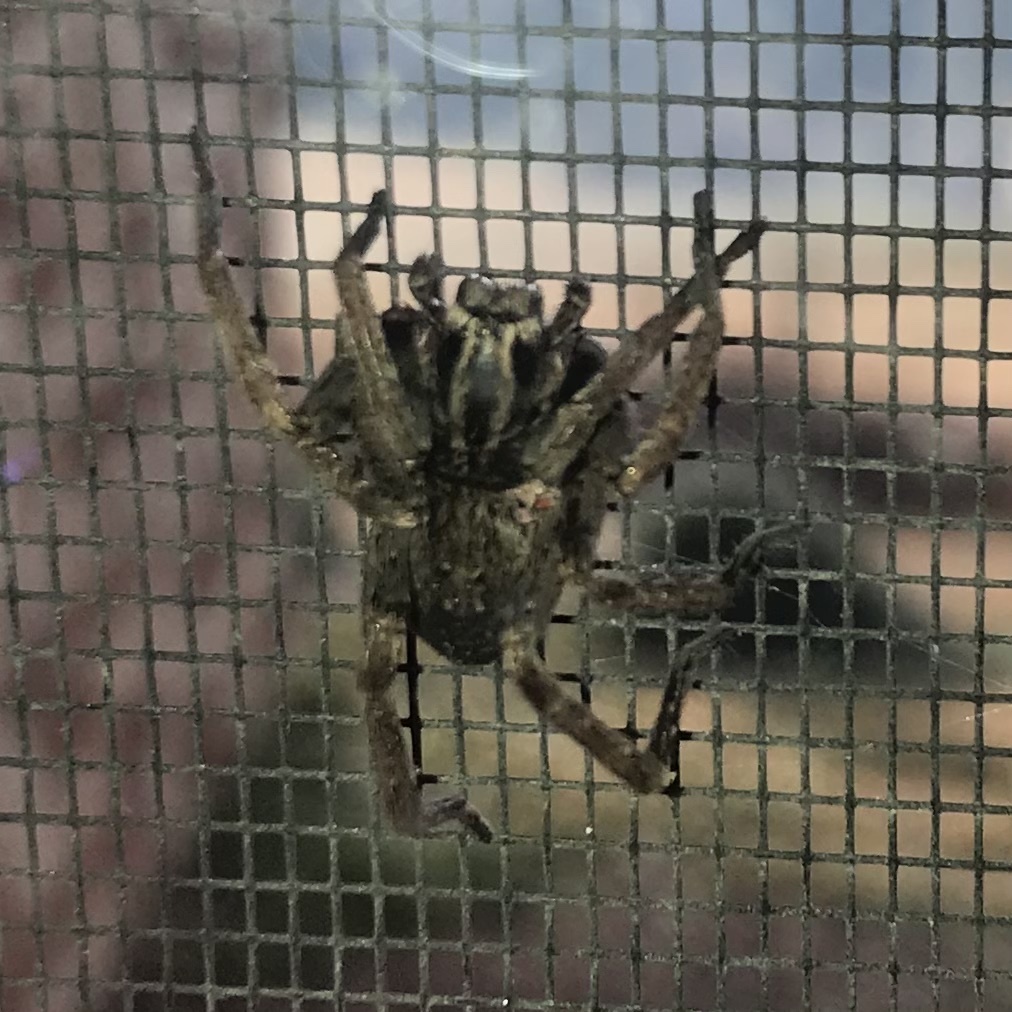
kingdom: Animalia
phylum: Arthropoda
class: Arachnida
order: Araneae
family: Miturgidae
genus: Mituliodon
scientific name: Mituliodon tarantulinus
